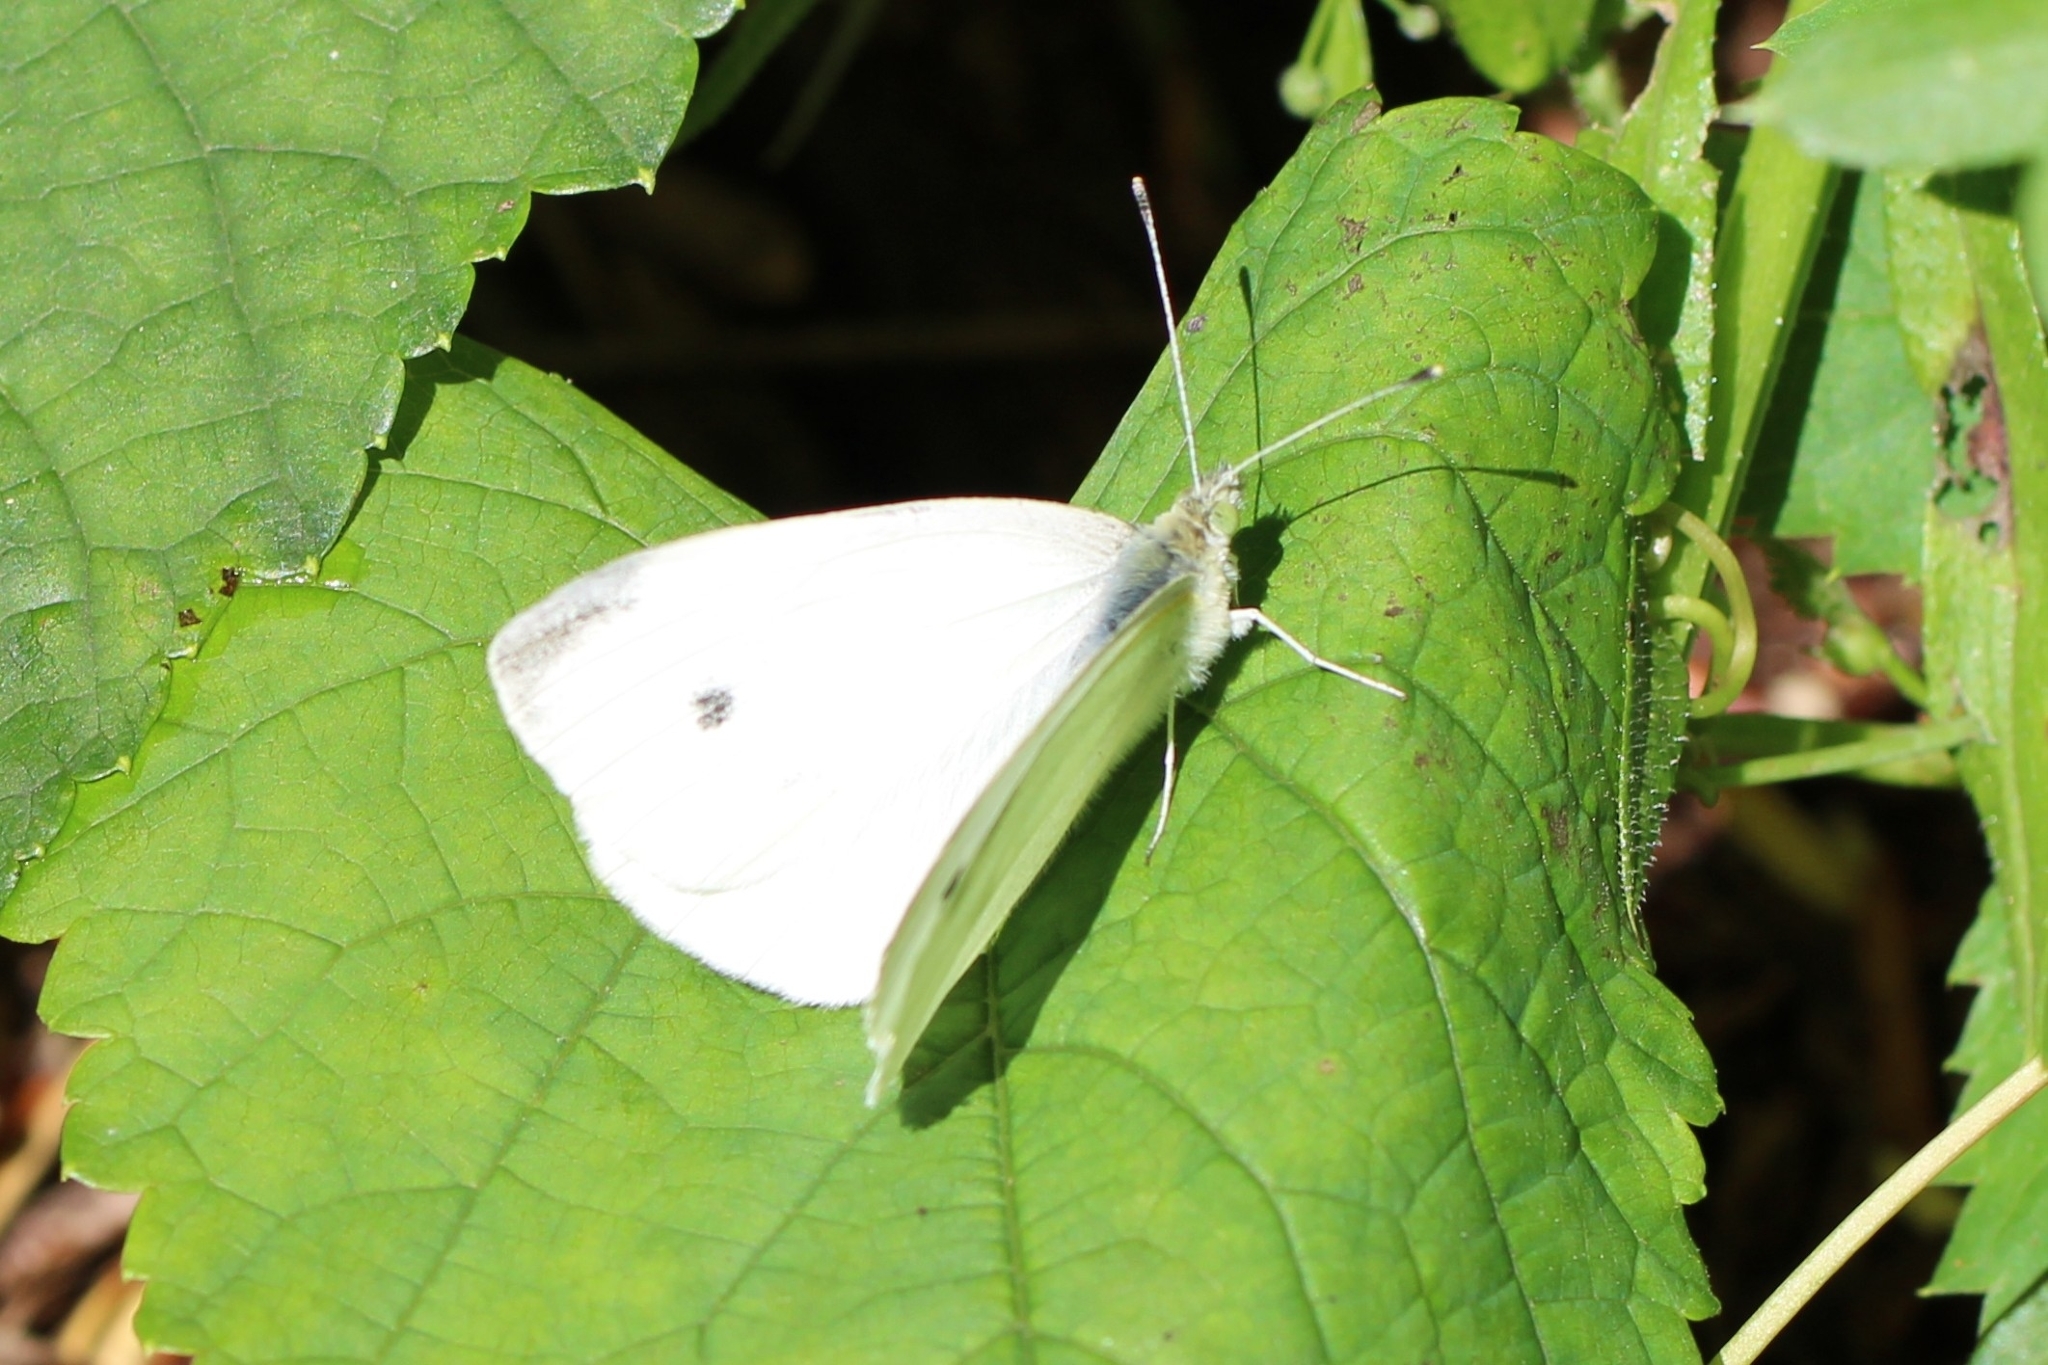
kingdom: Animalia
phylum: Arthropoda
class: Insecta
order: Lepidoptera
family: Pieridae
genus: Pieris
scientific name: Pieris rapae
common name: Small white
